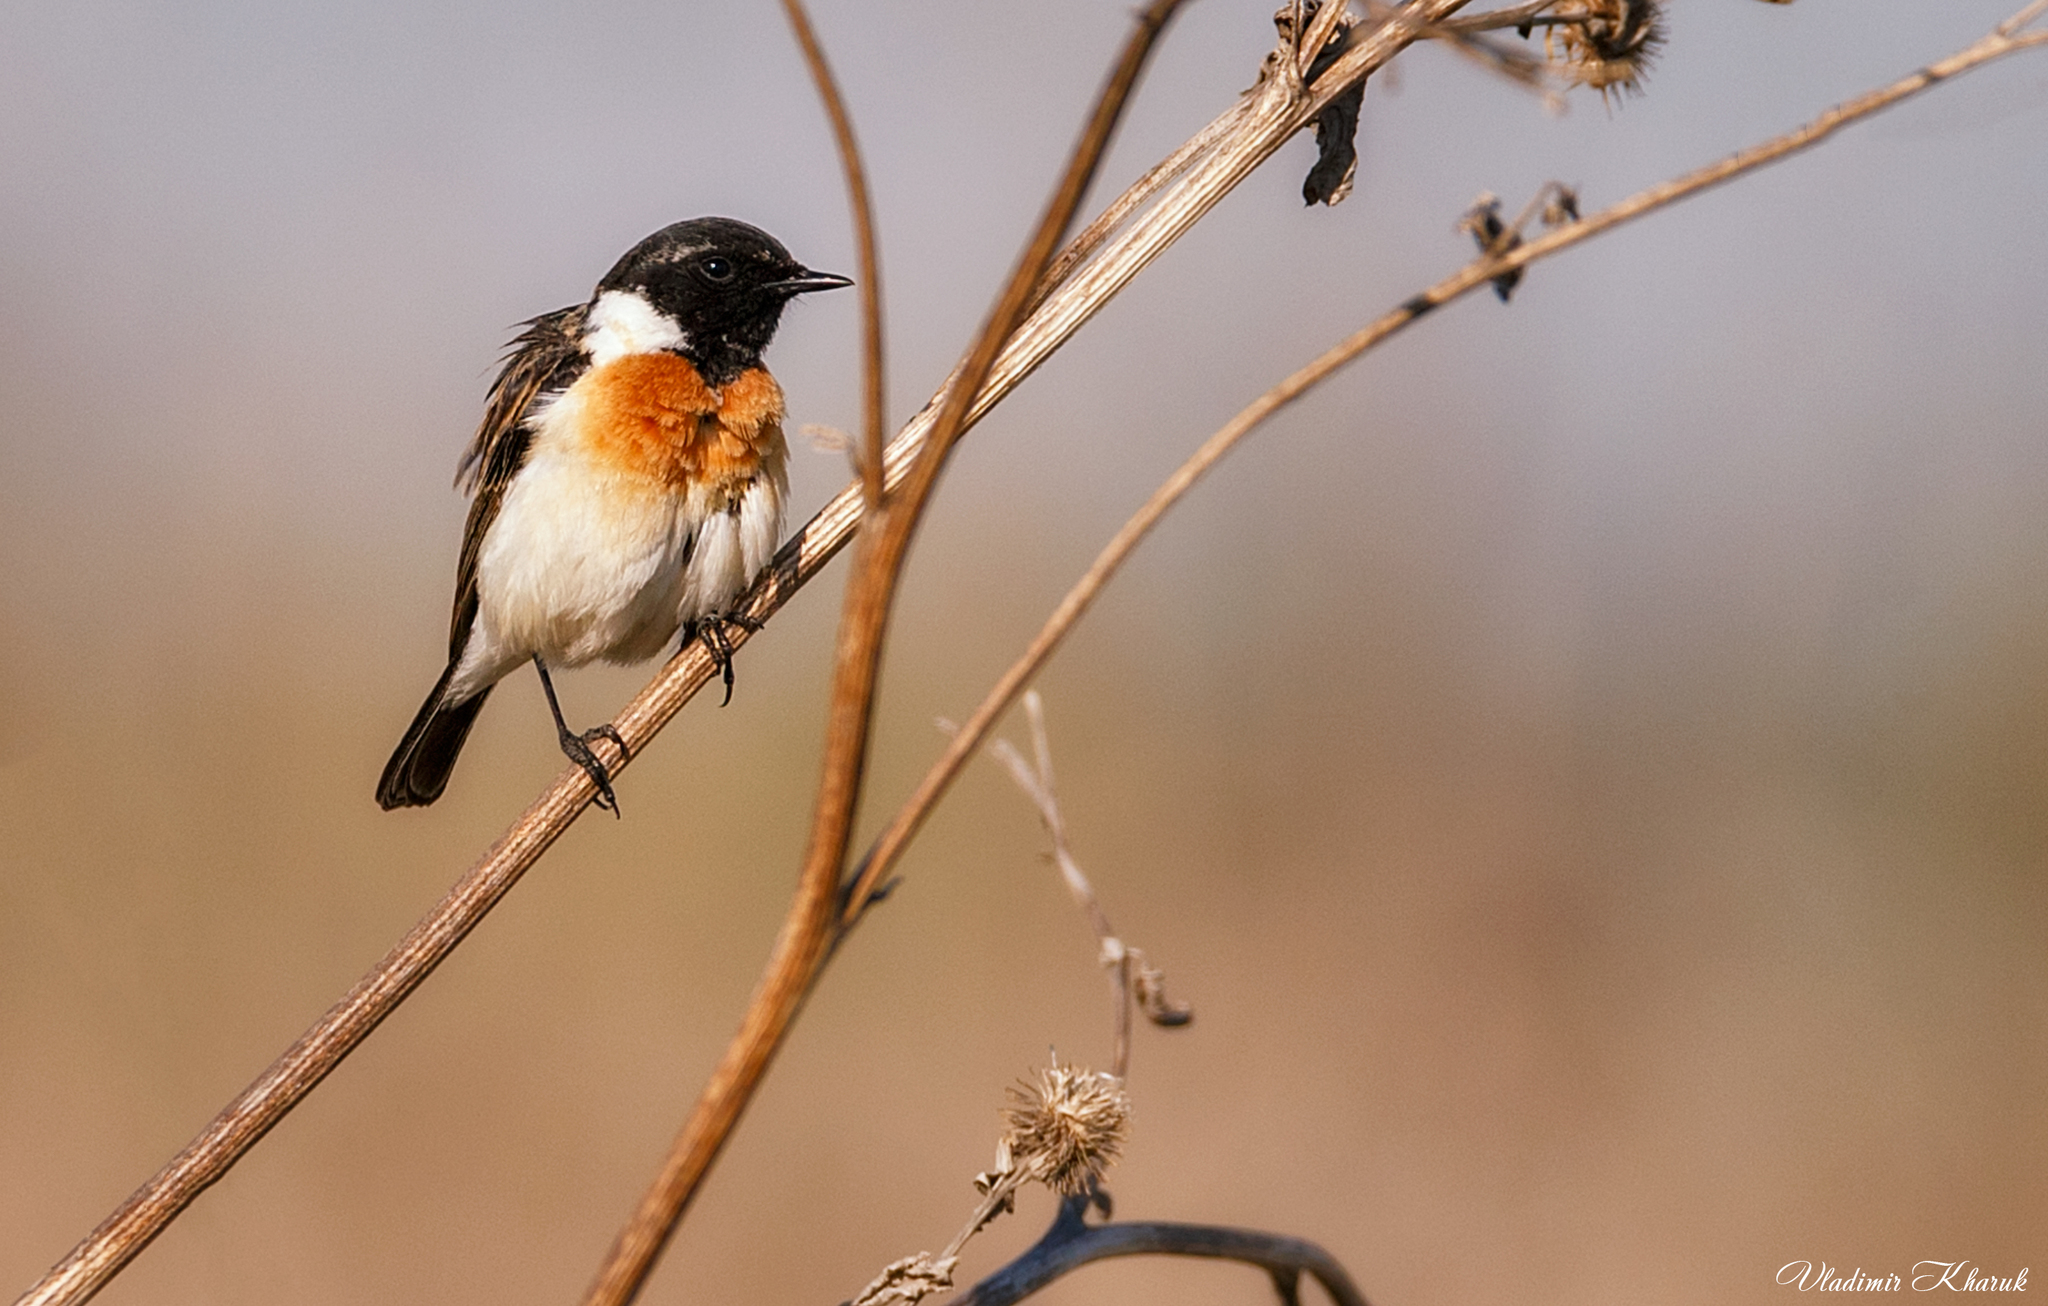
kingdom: Animalia
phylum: Chordata
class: Aves
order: Passeriformes
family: Muscicapidae
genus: Saxicola
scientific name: Saxicola maurus
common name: Siberian stonechat
